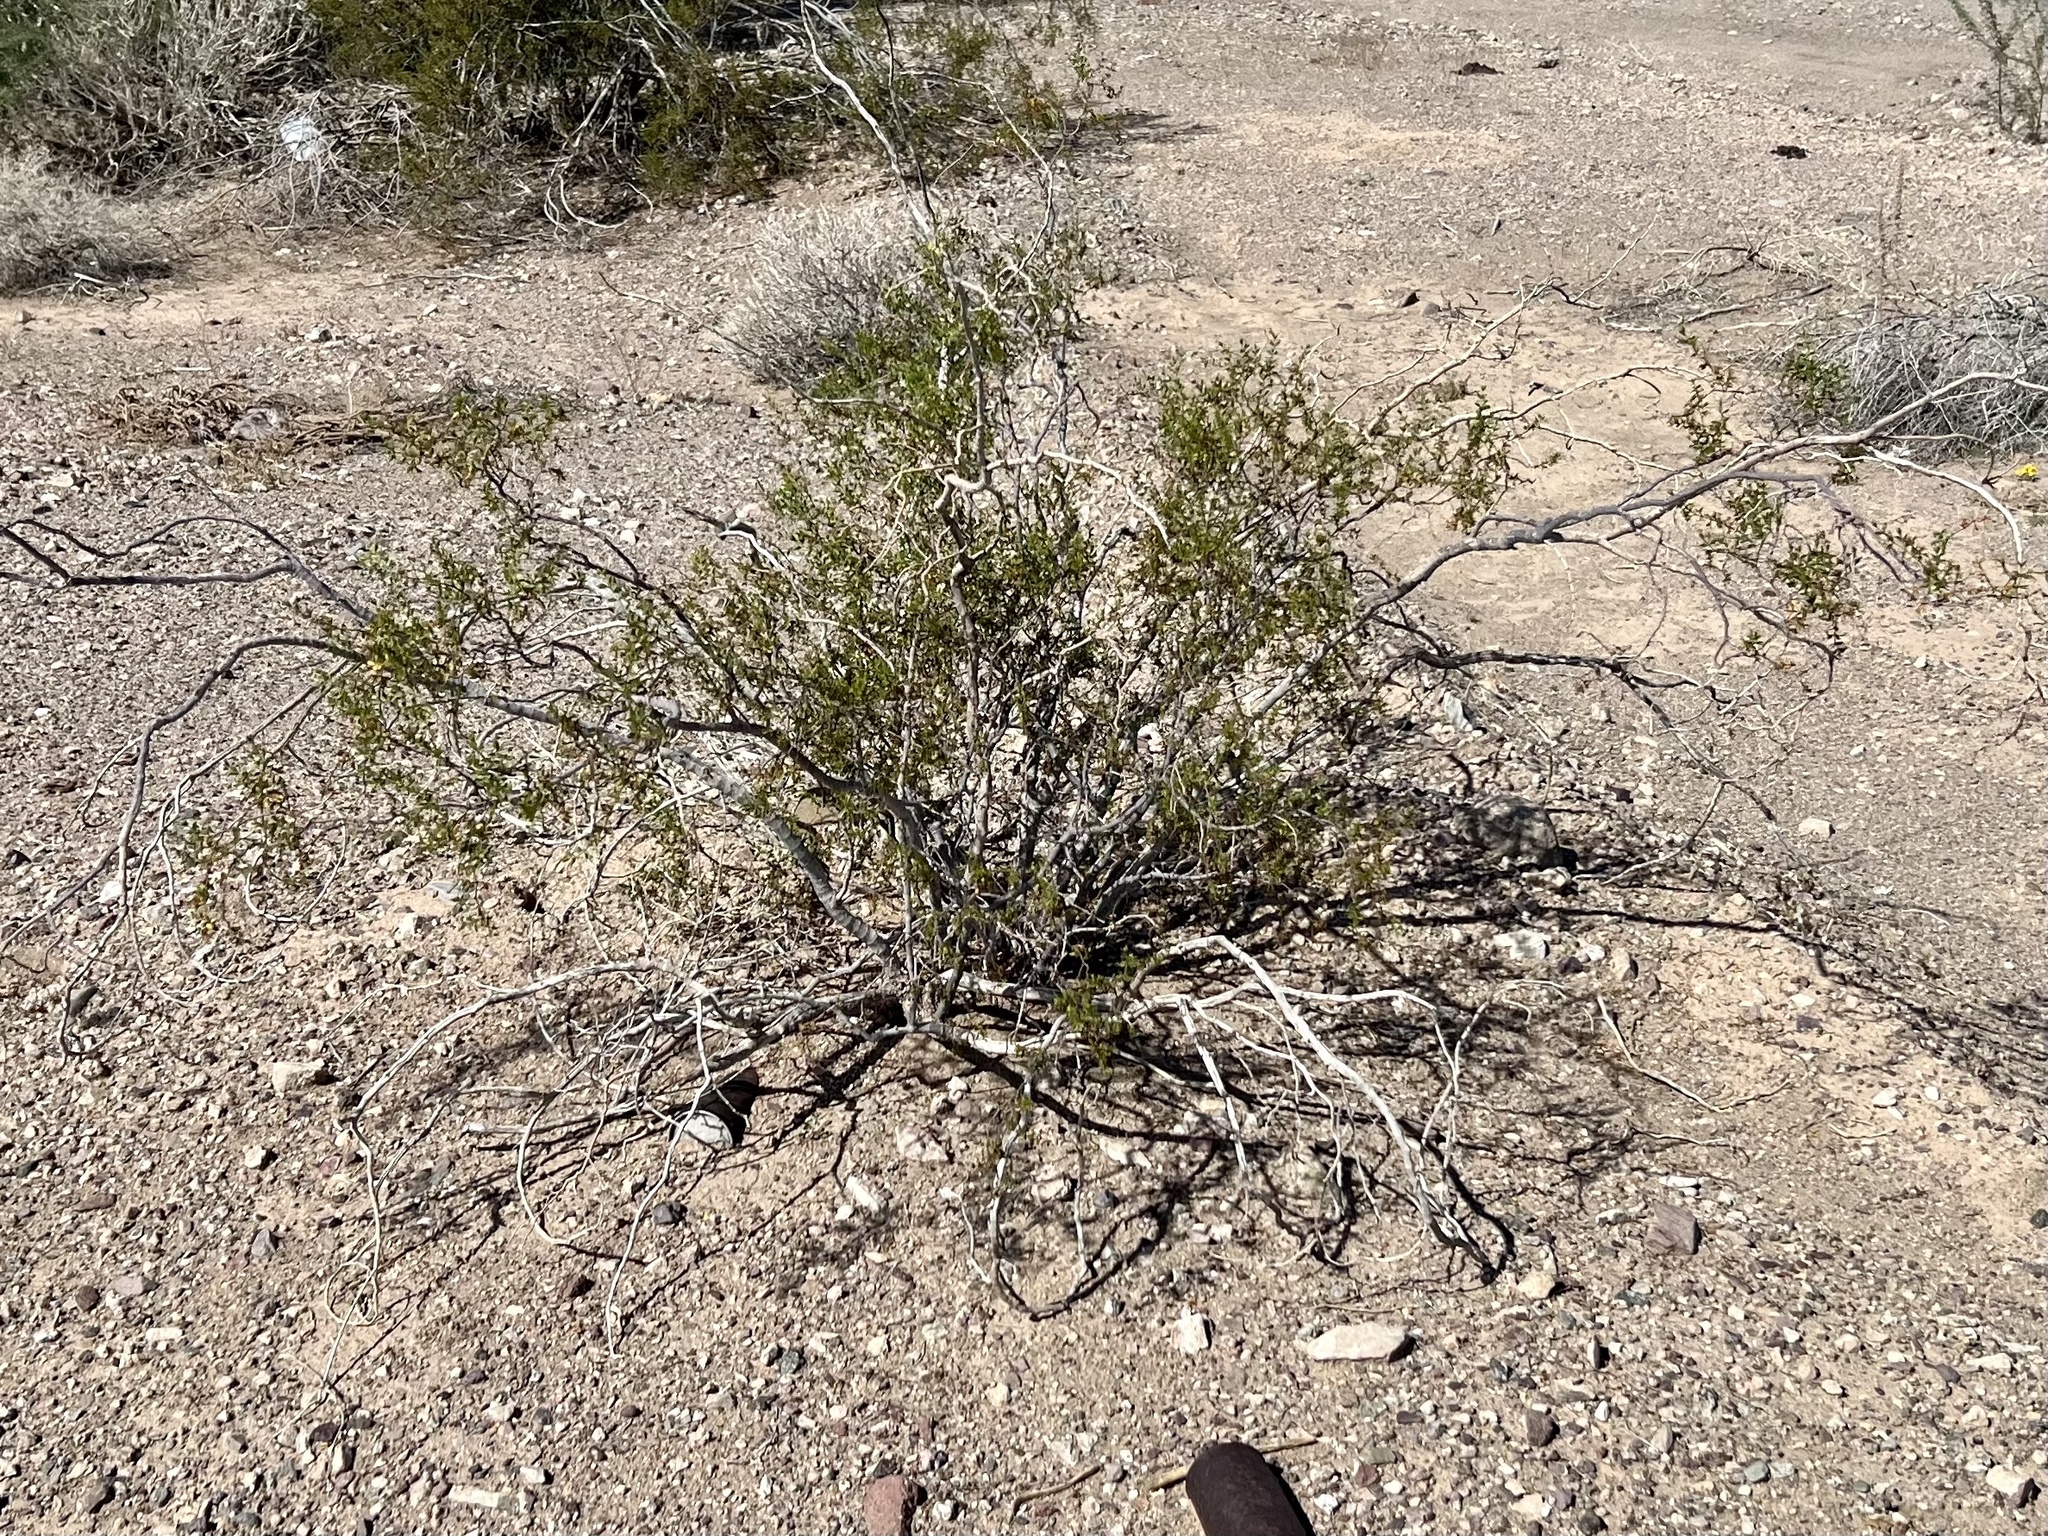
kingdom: Plantae
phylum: Tracheophyta
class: Magnoliopsida
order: Zygophyllales
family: Zygophyllaceae
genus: Larrea
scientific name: Larrea tridentata
